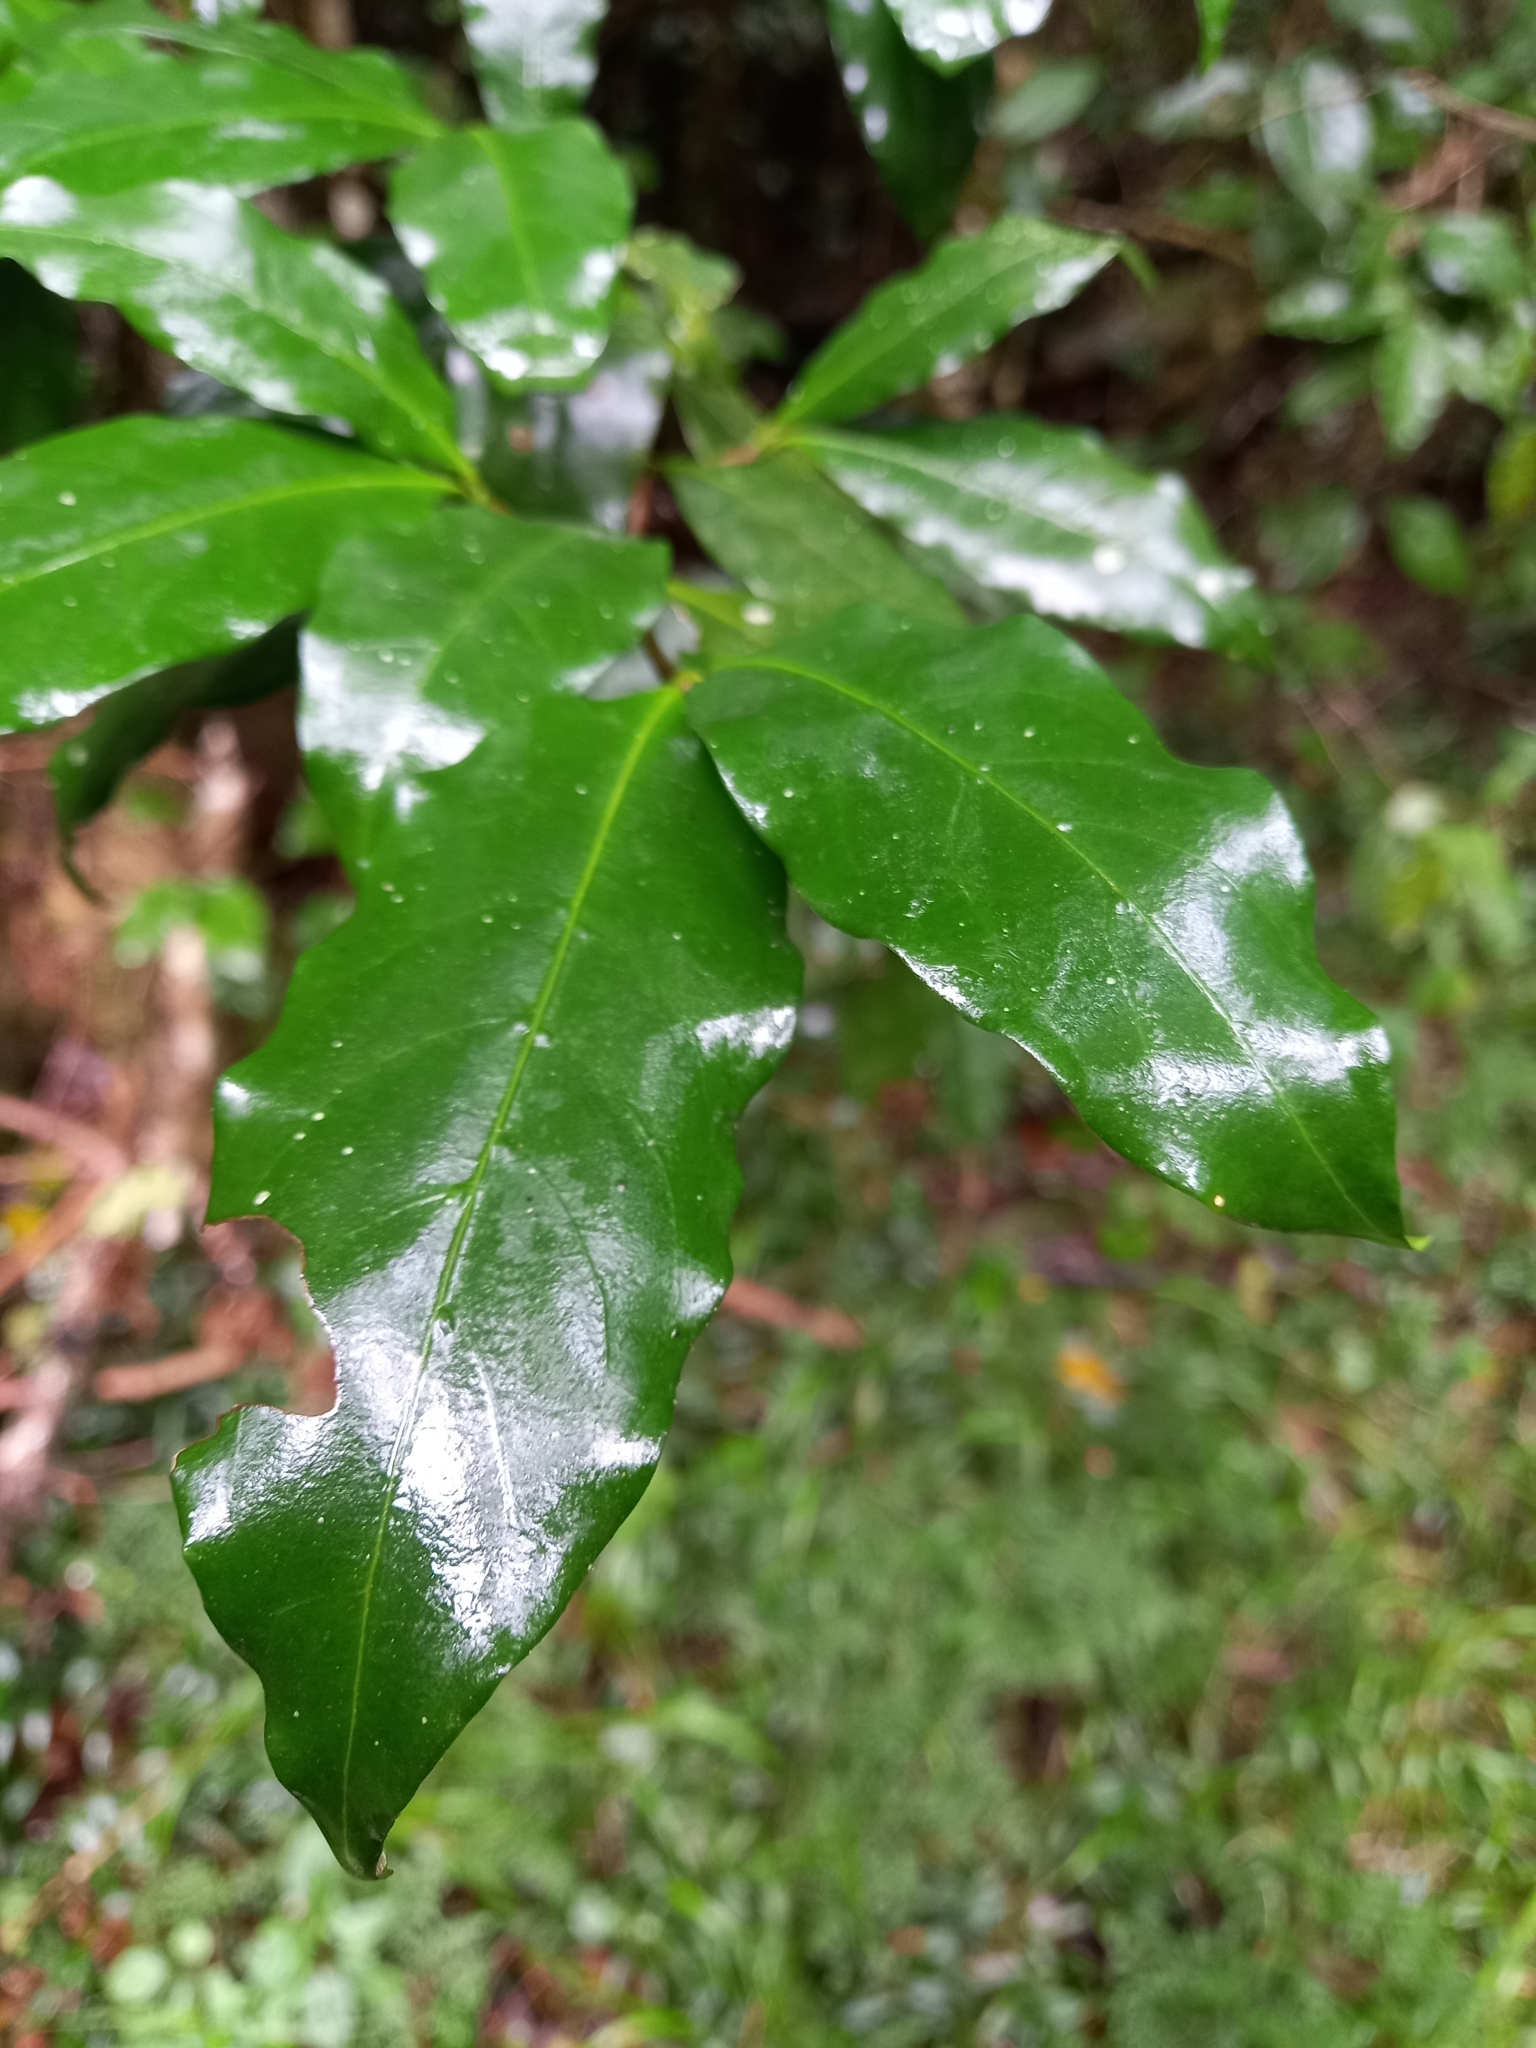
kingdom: Plantae
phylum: Tracheophyta
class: Magnoliopsida
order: Gentianales
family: Rubiaceae
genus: Rothmannia
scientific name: Rothmannia capensis
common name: Cape gardenia
